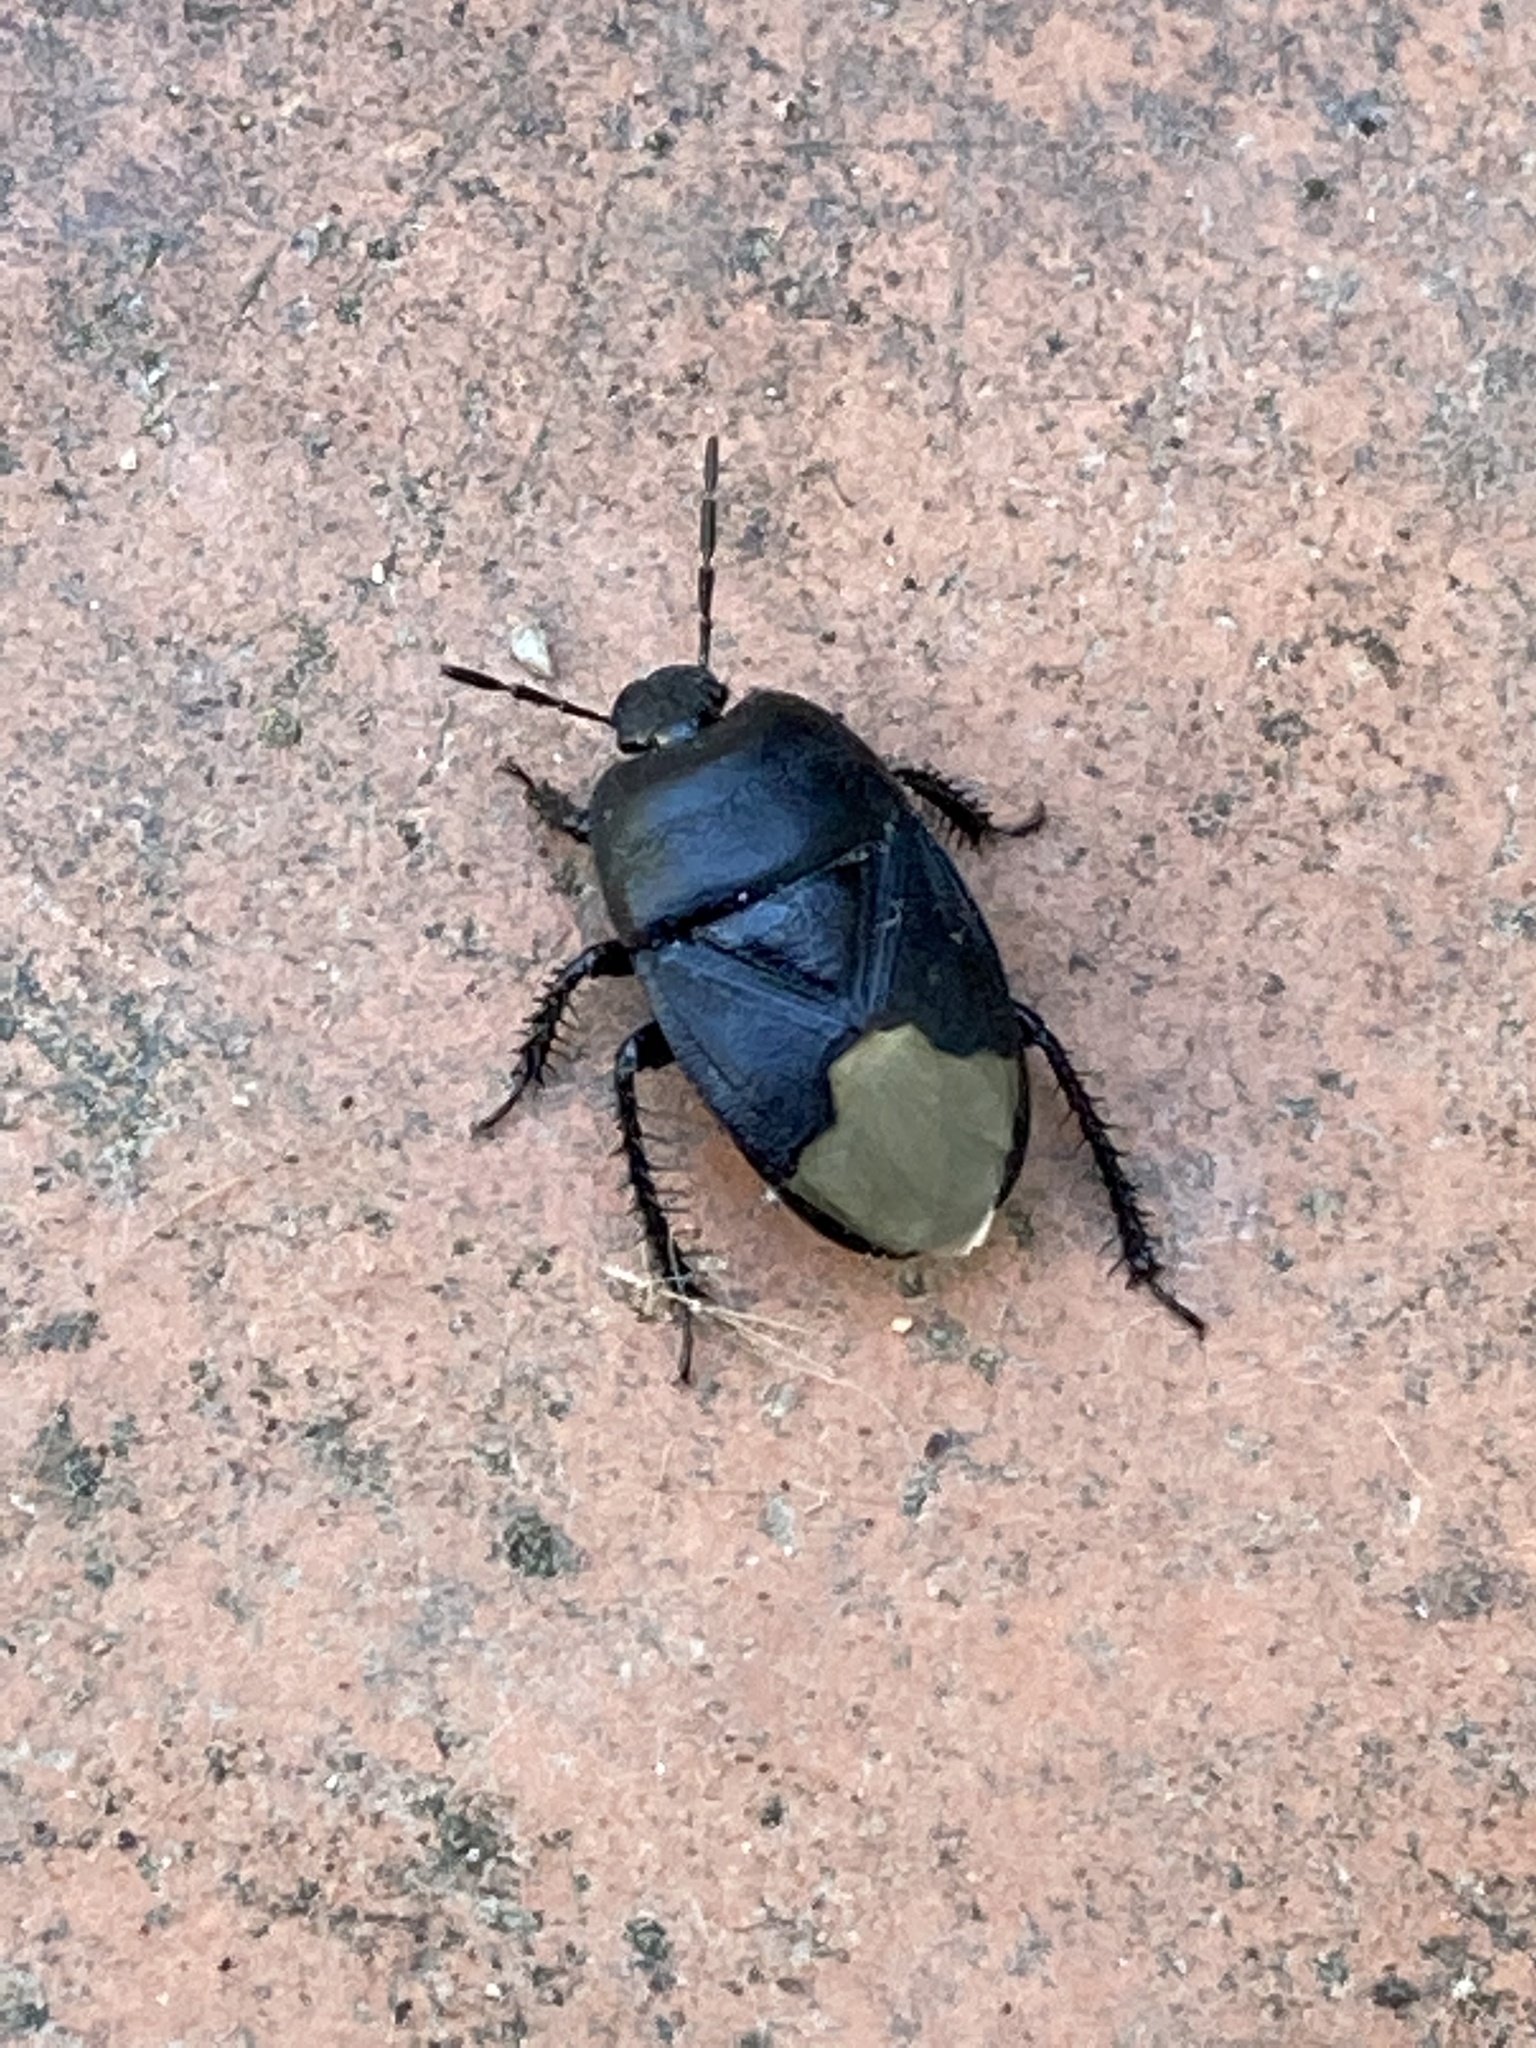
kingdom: Animalia
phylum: Arthropoda
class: Insecta
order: Hemiptera
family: Cydnidae
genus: Cydnus
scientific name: Cydnus aterrimus
